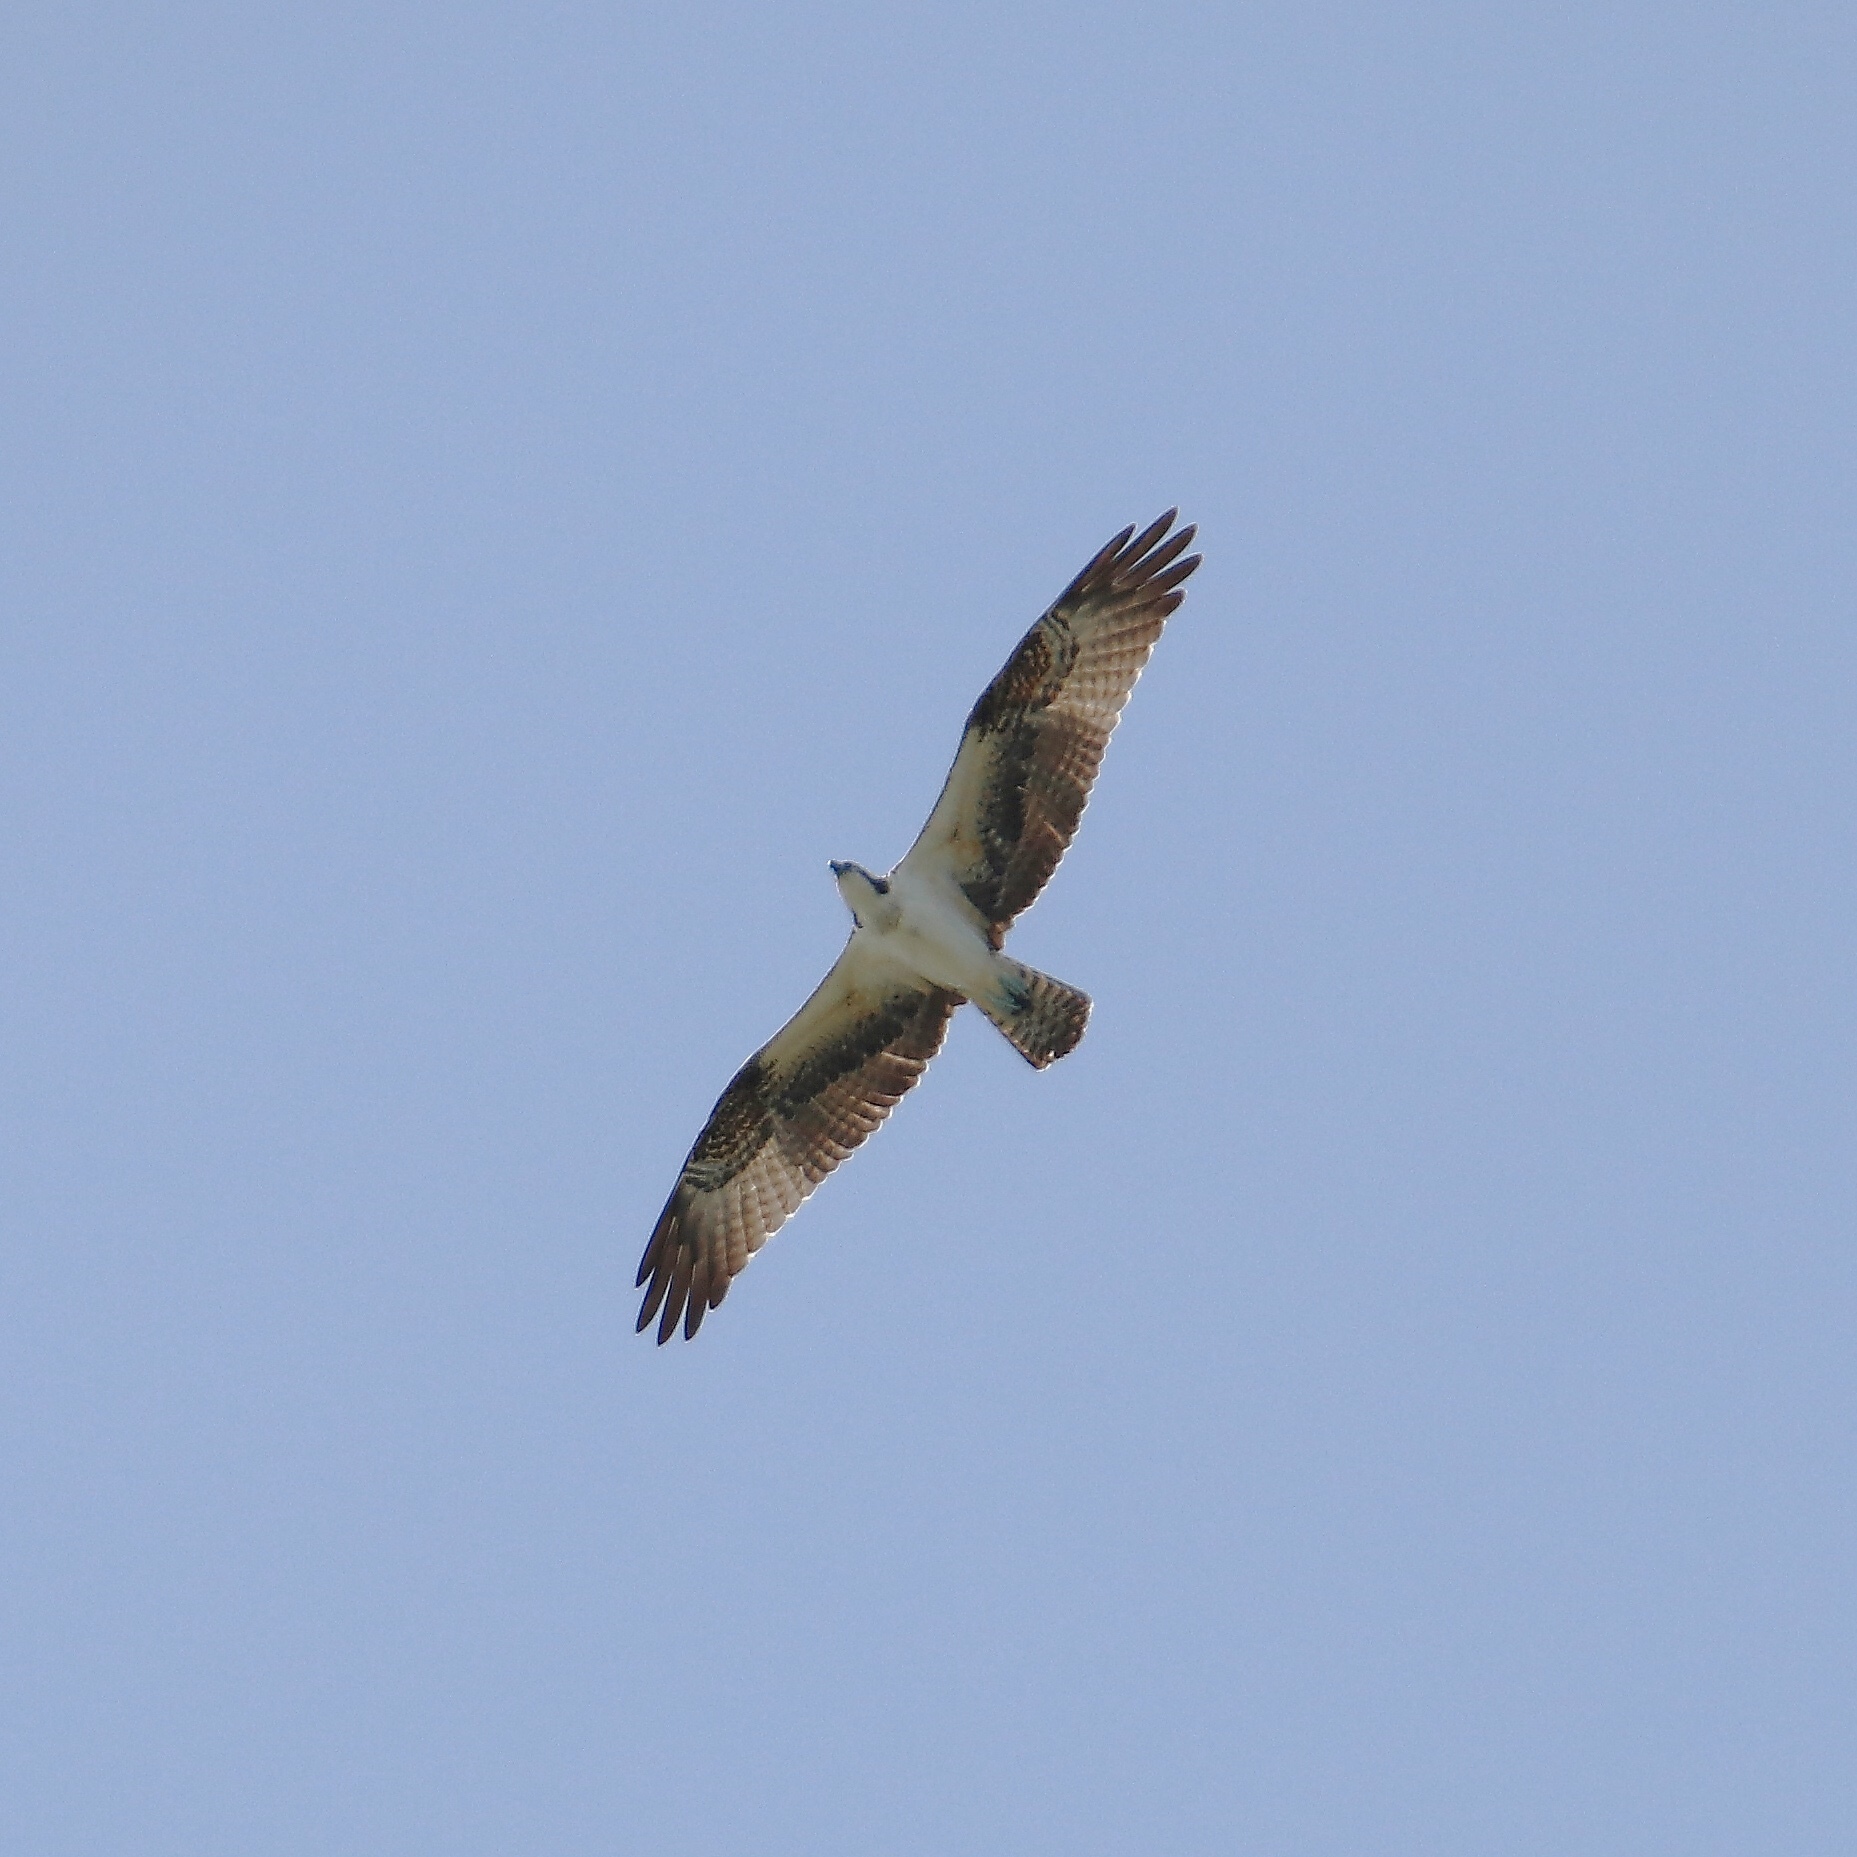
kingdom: Animalia
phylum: Chordata
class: Aves
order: Accipitriformes
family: Pandionidae
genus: Pandion
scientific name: Pandion haliaetus
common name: Osprey
